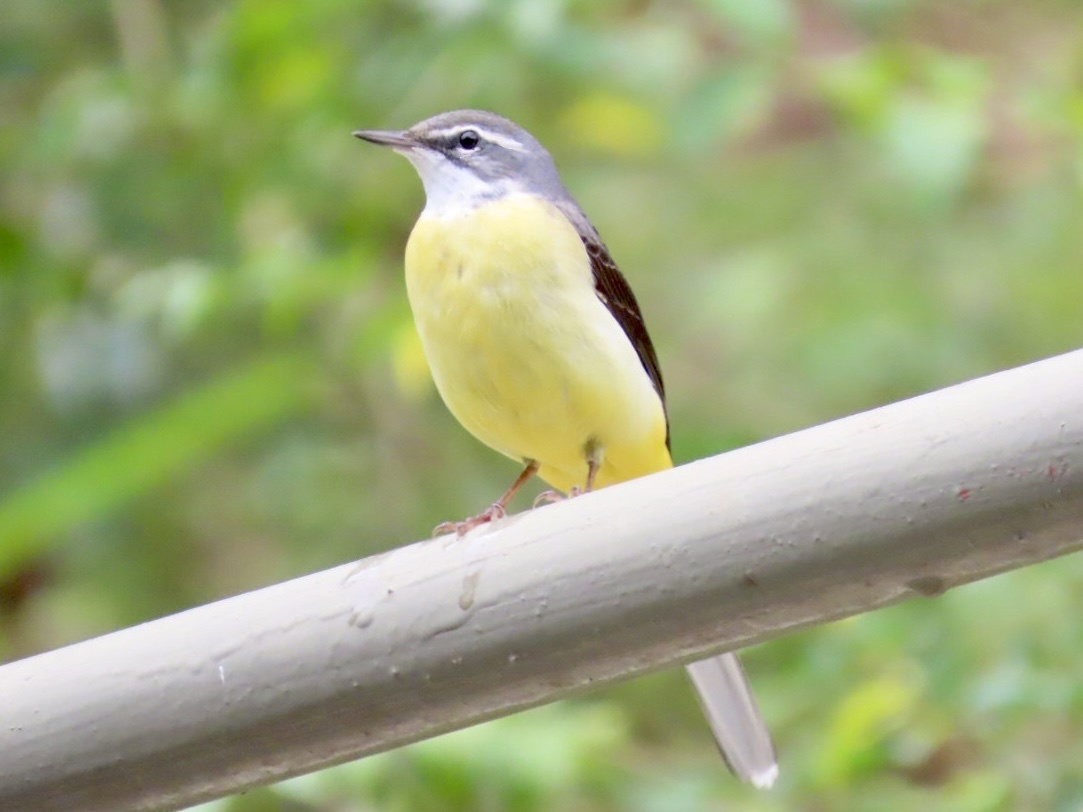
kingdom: Animalia
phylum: Chordata
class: Aves
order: Passeriformes
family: Motacillidae
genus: Motacilla
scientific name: Motacilla cinerea
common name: Grey wagtail
